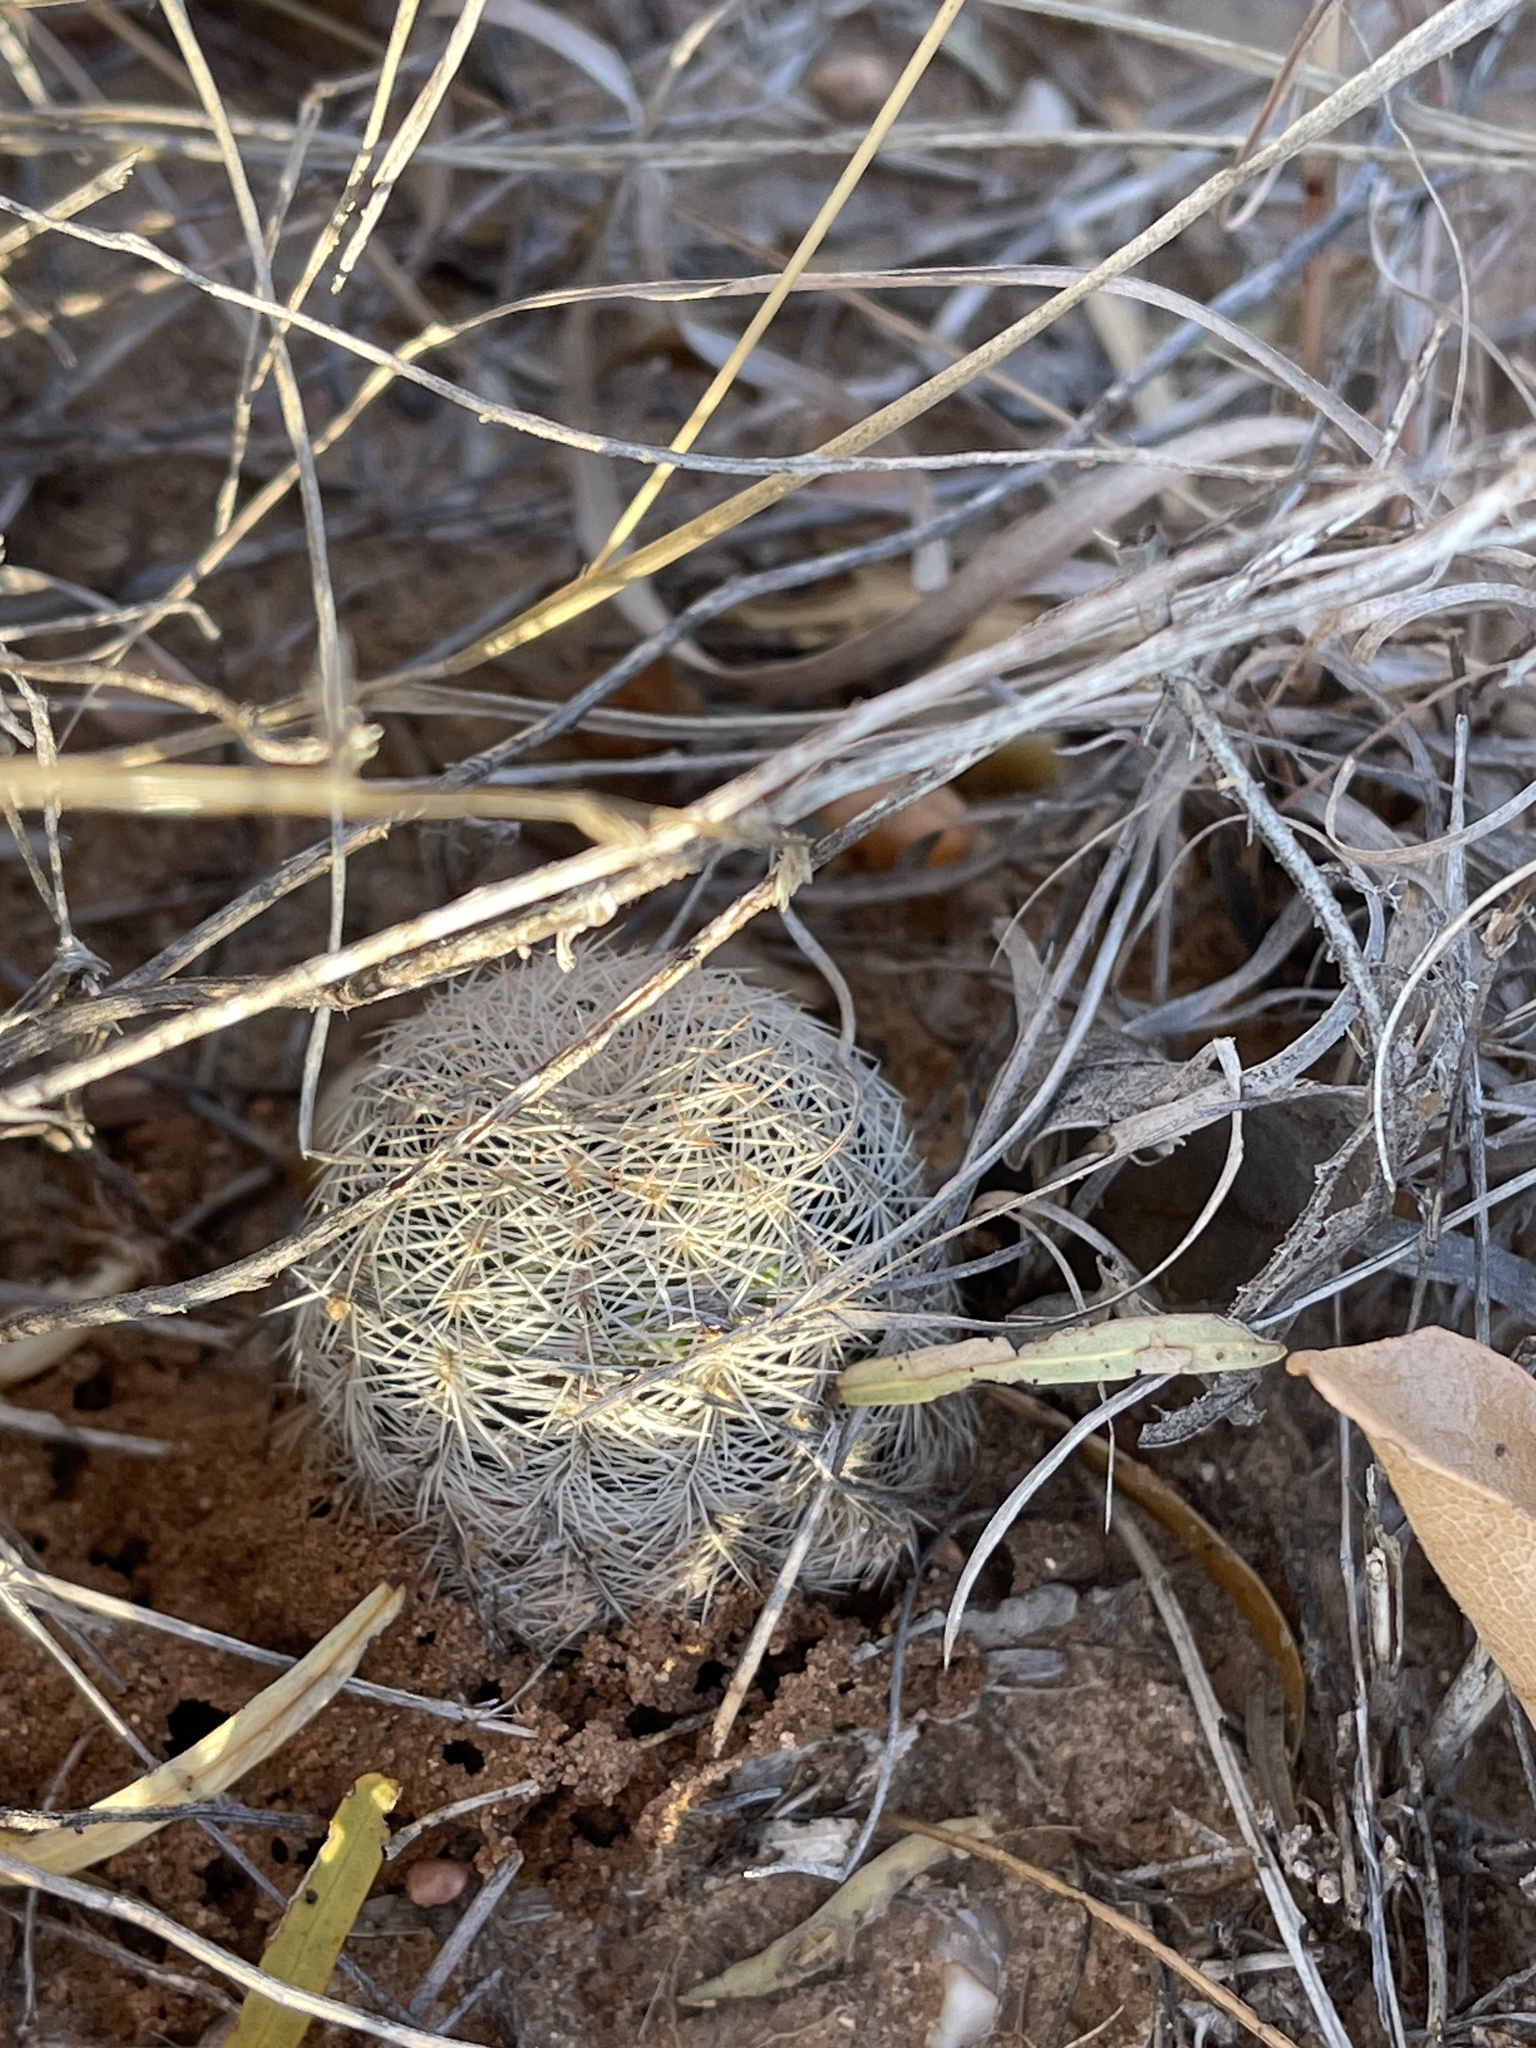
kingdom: Plantae
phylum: Tracheophyta
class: Magnoliopsida
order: Caryophyllales
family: Cactaceae
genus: Echinocereus
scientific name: Echinocereus reichenbachii
